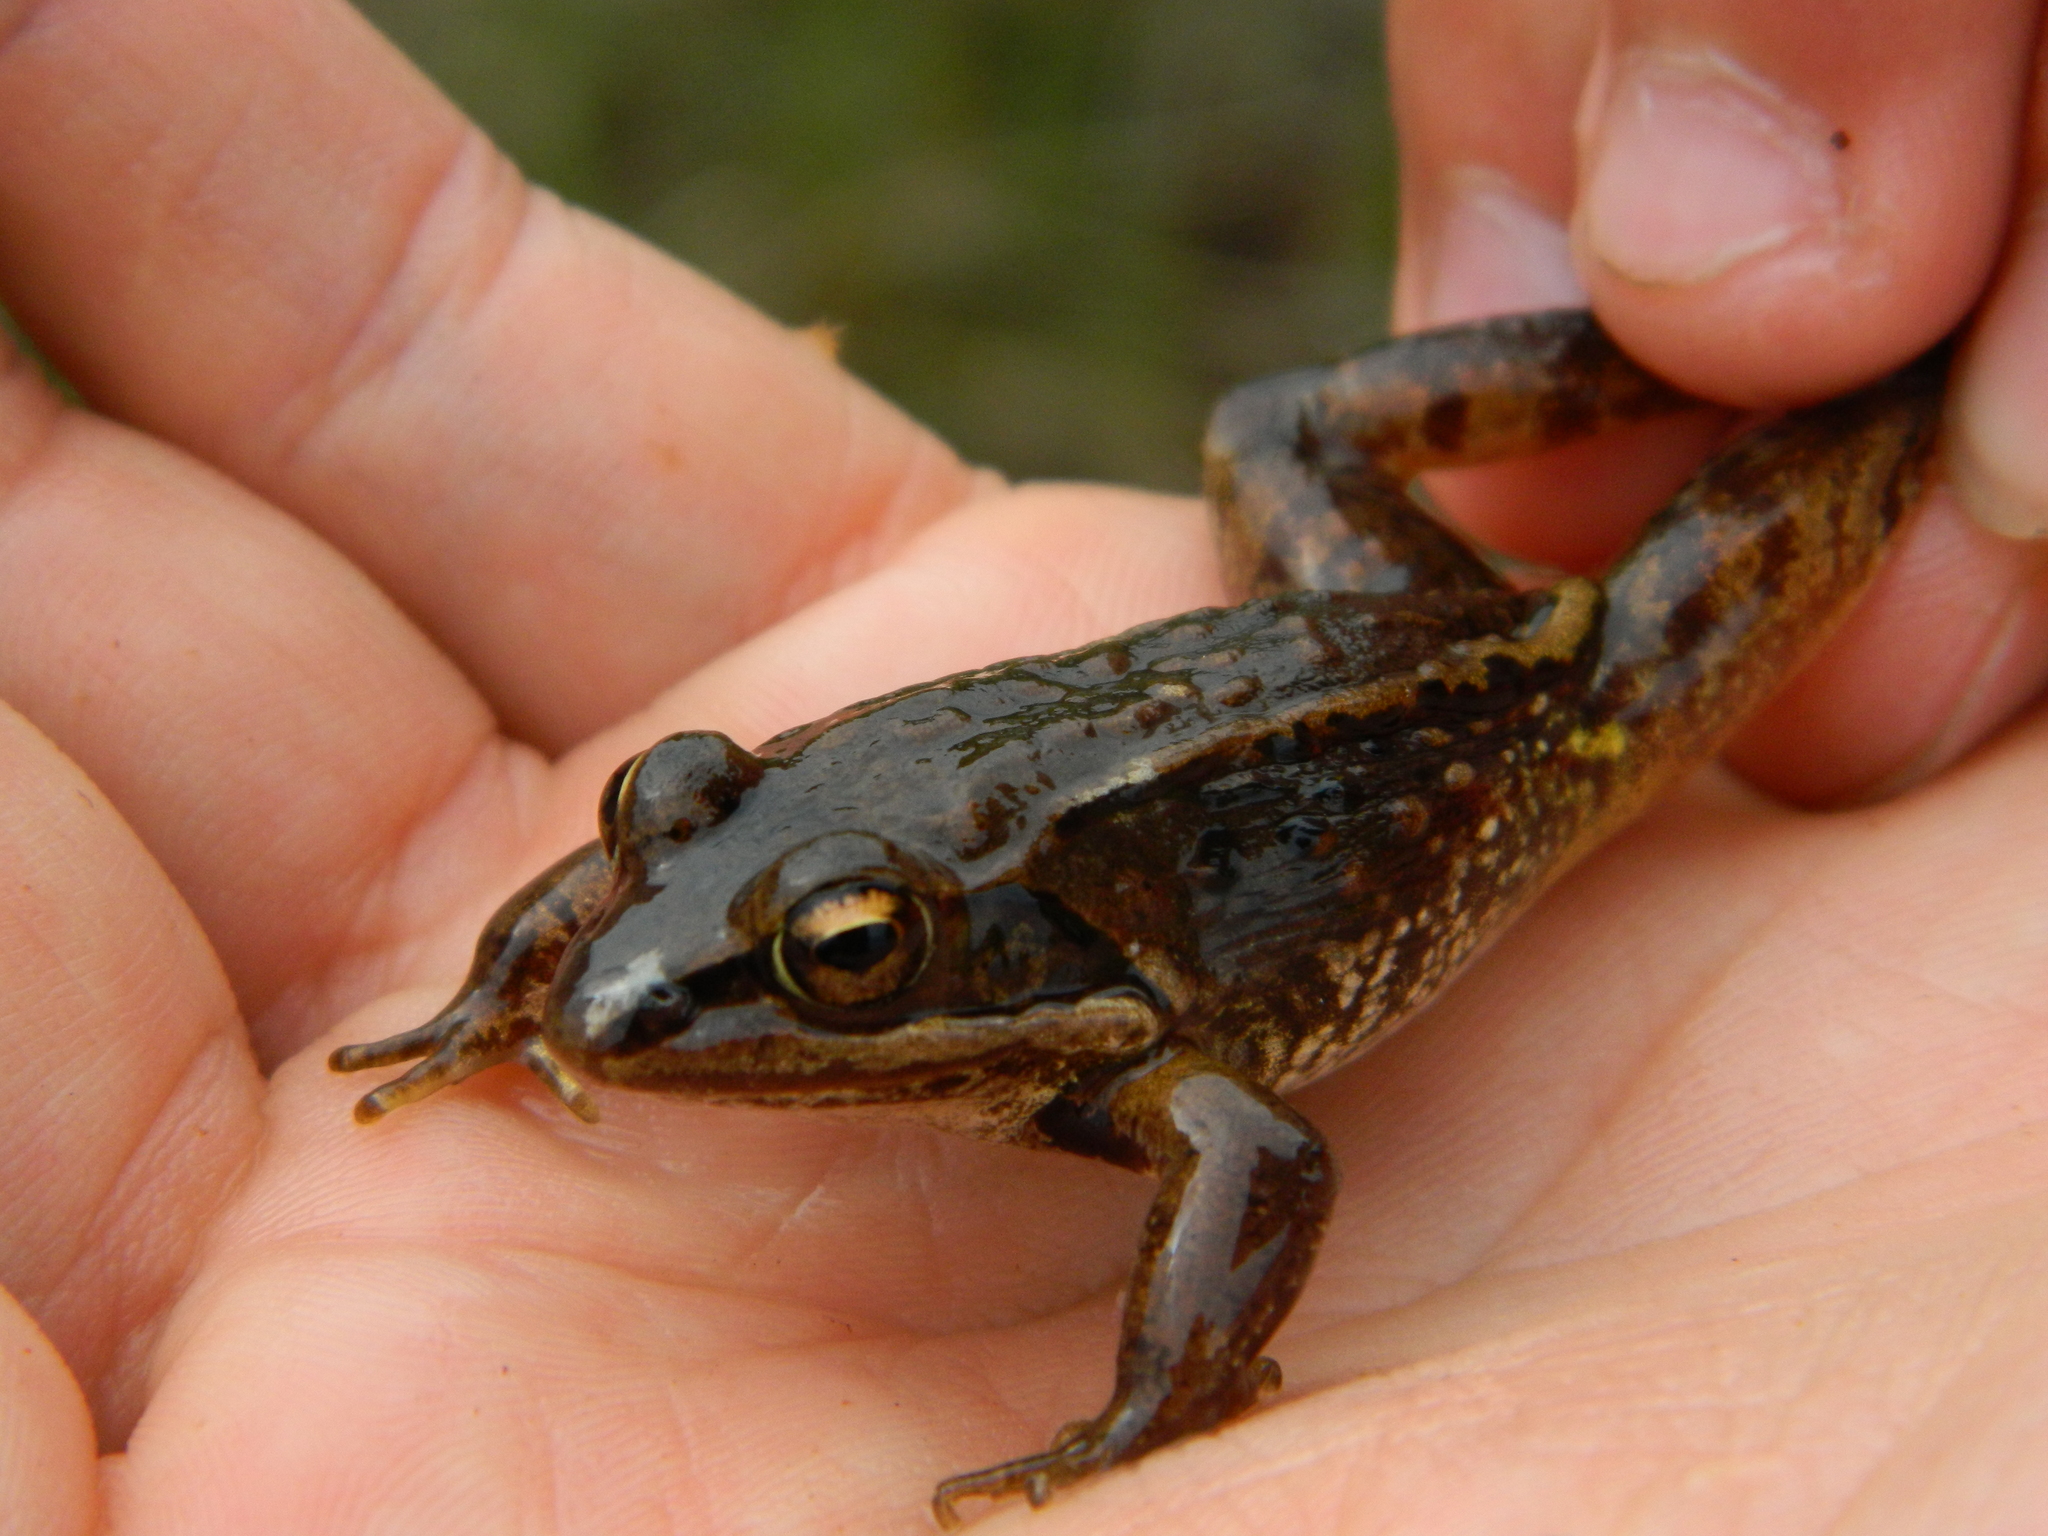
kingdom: Animalia
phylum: Chordata
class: Amphibia
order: Anura
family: Ranidae
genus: Lithobates
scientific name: Lithobates sylvaticus
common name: Wood frog
